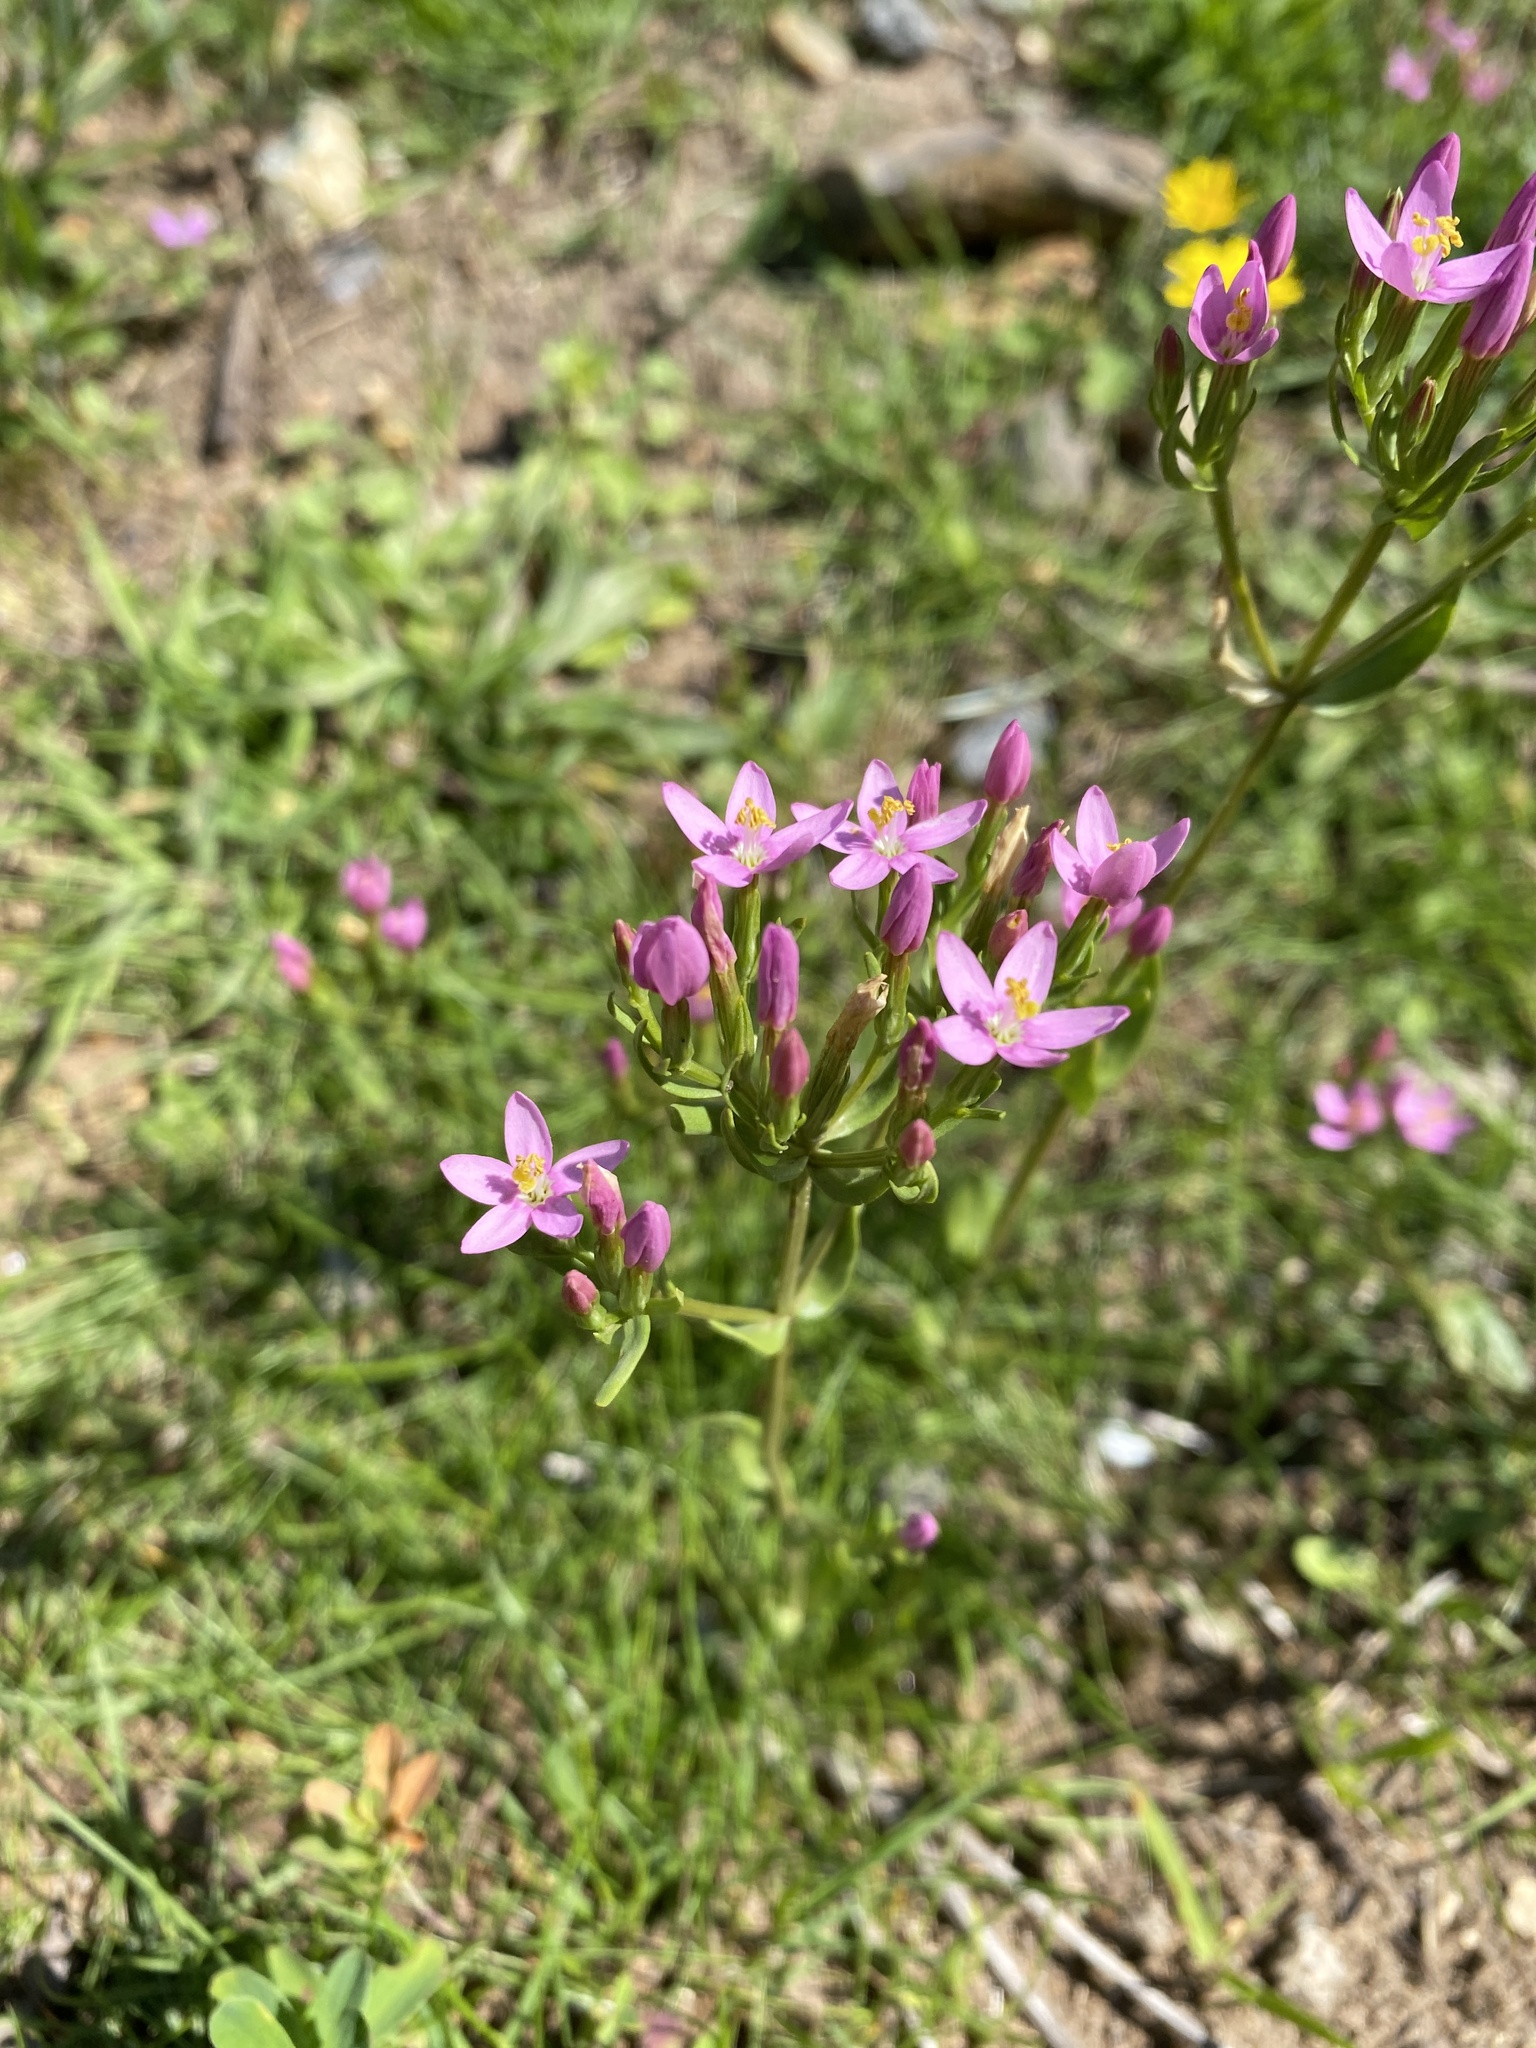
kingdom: Plantae
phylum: Tracheophyta
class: Magnoliopsida
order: Gentianales
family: Gentianaceae
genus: Centaurium
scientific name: Centaurium erythraea
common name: Common centaury
